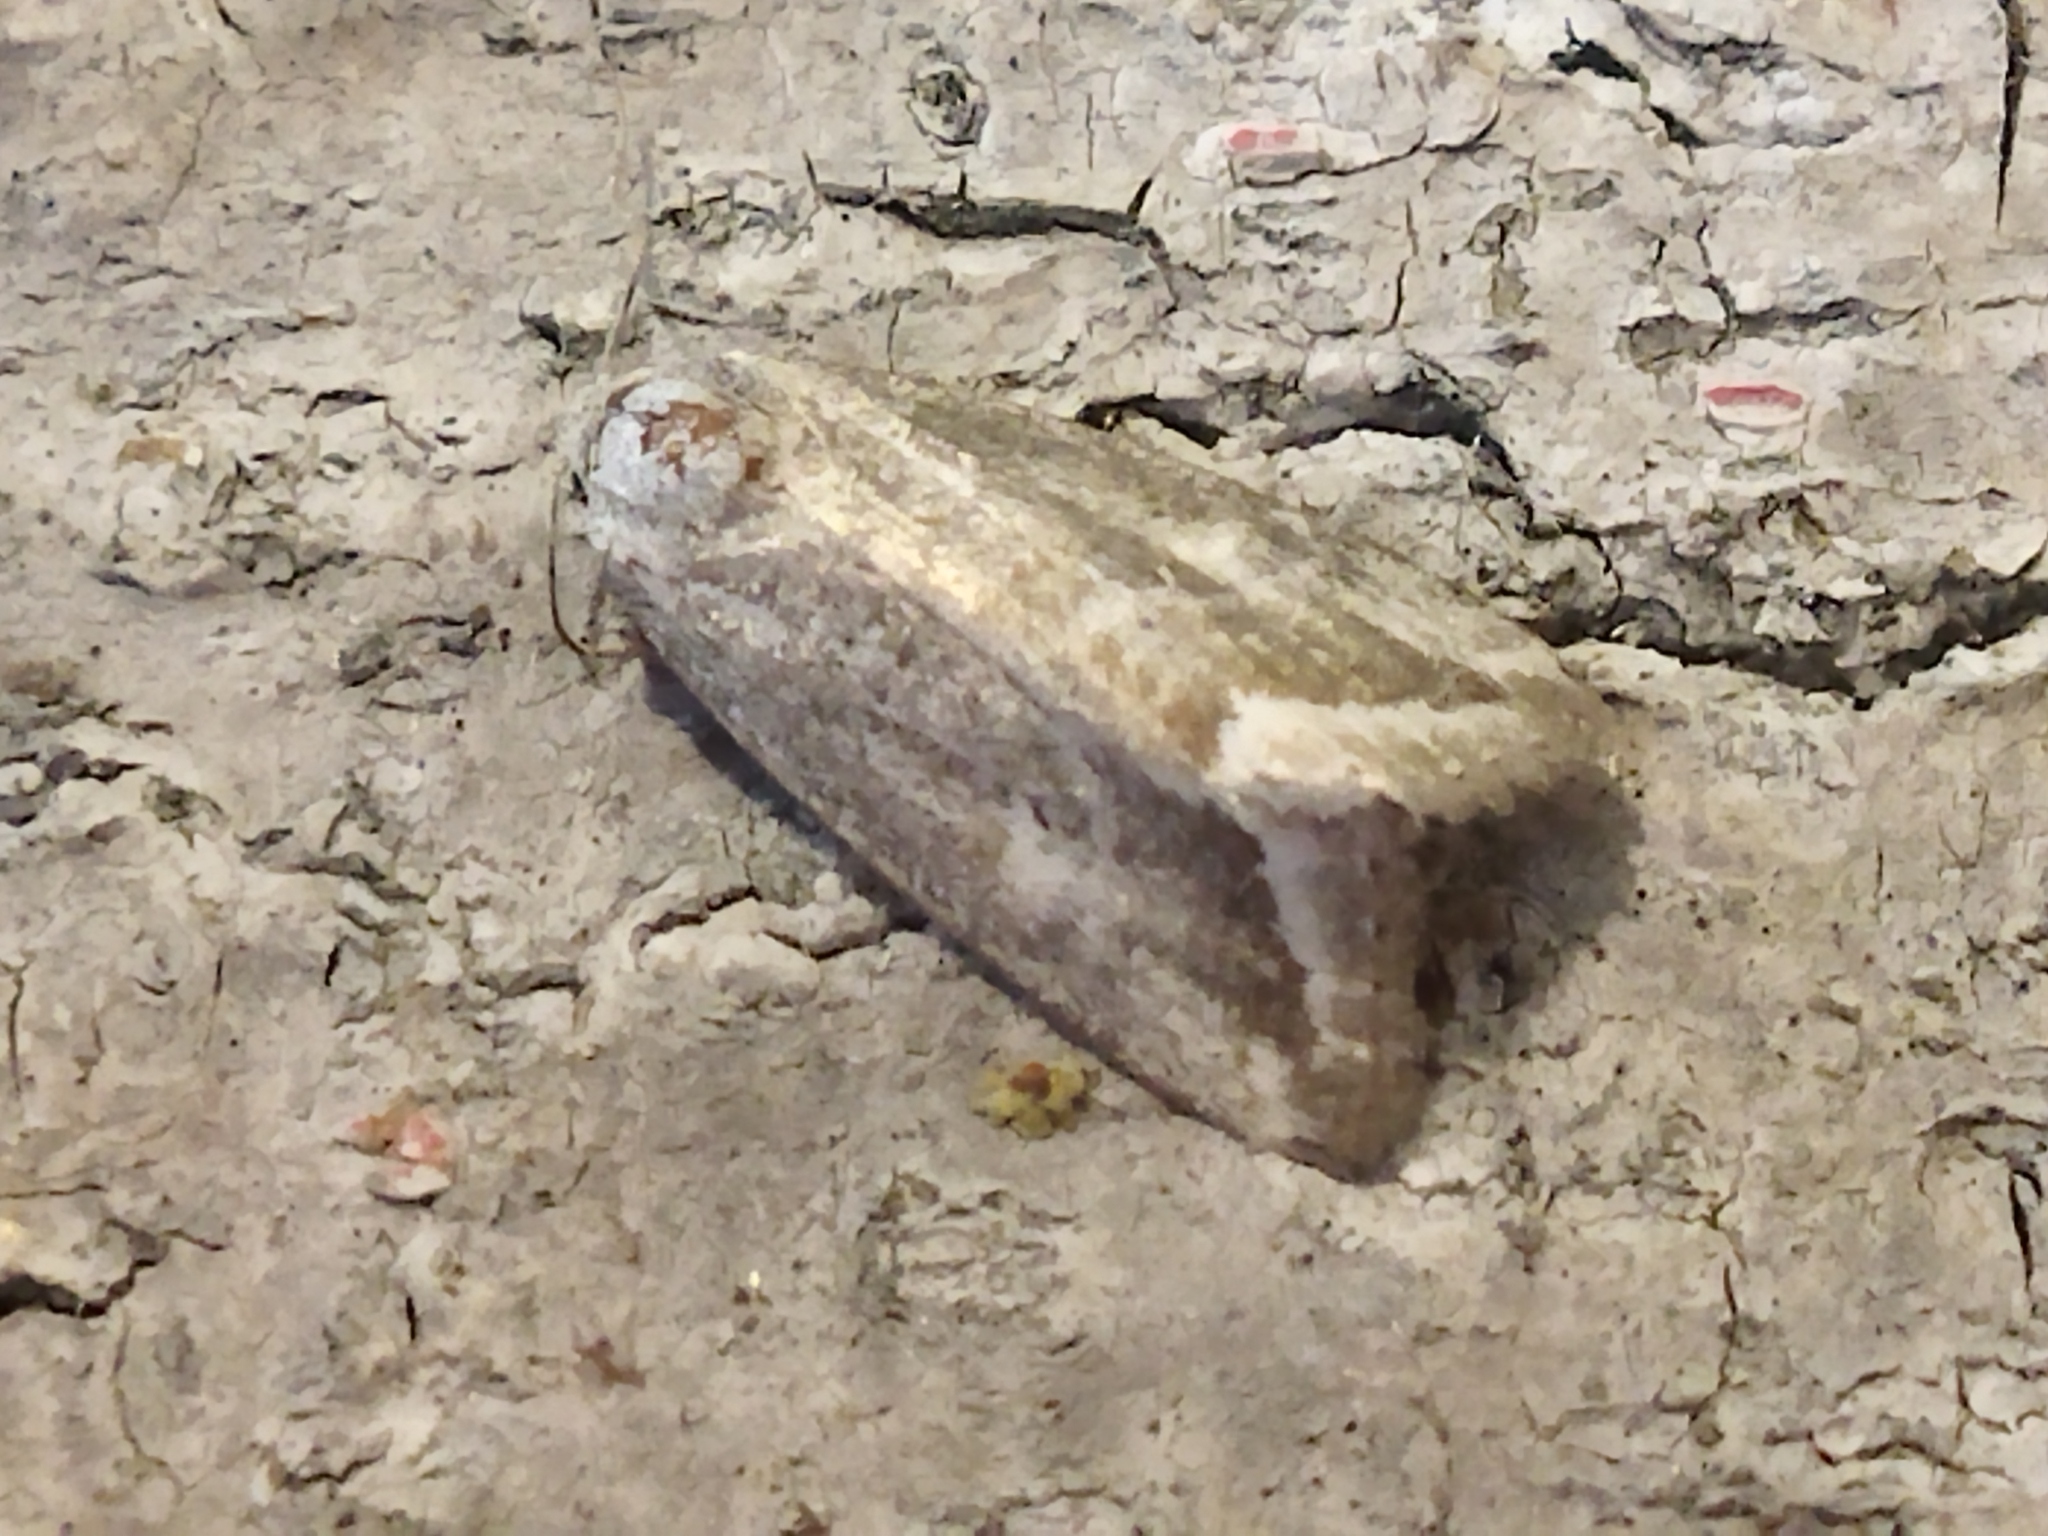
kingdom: Animalia
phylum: Arthropoda
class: Insecta
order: Lepidoptera
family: Noctuidae
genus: Phyllophila
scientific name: Phyllophila obliterata
